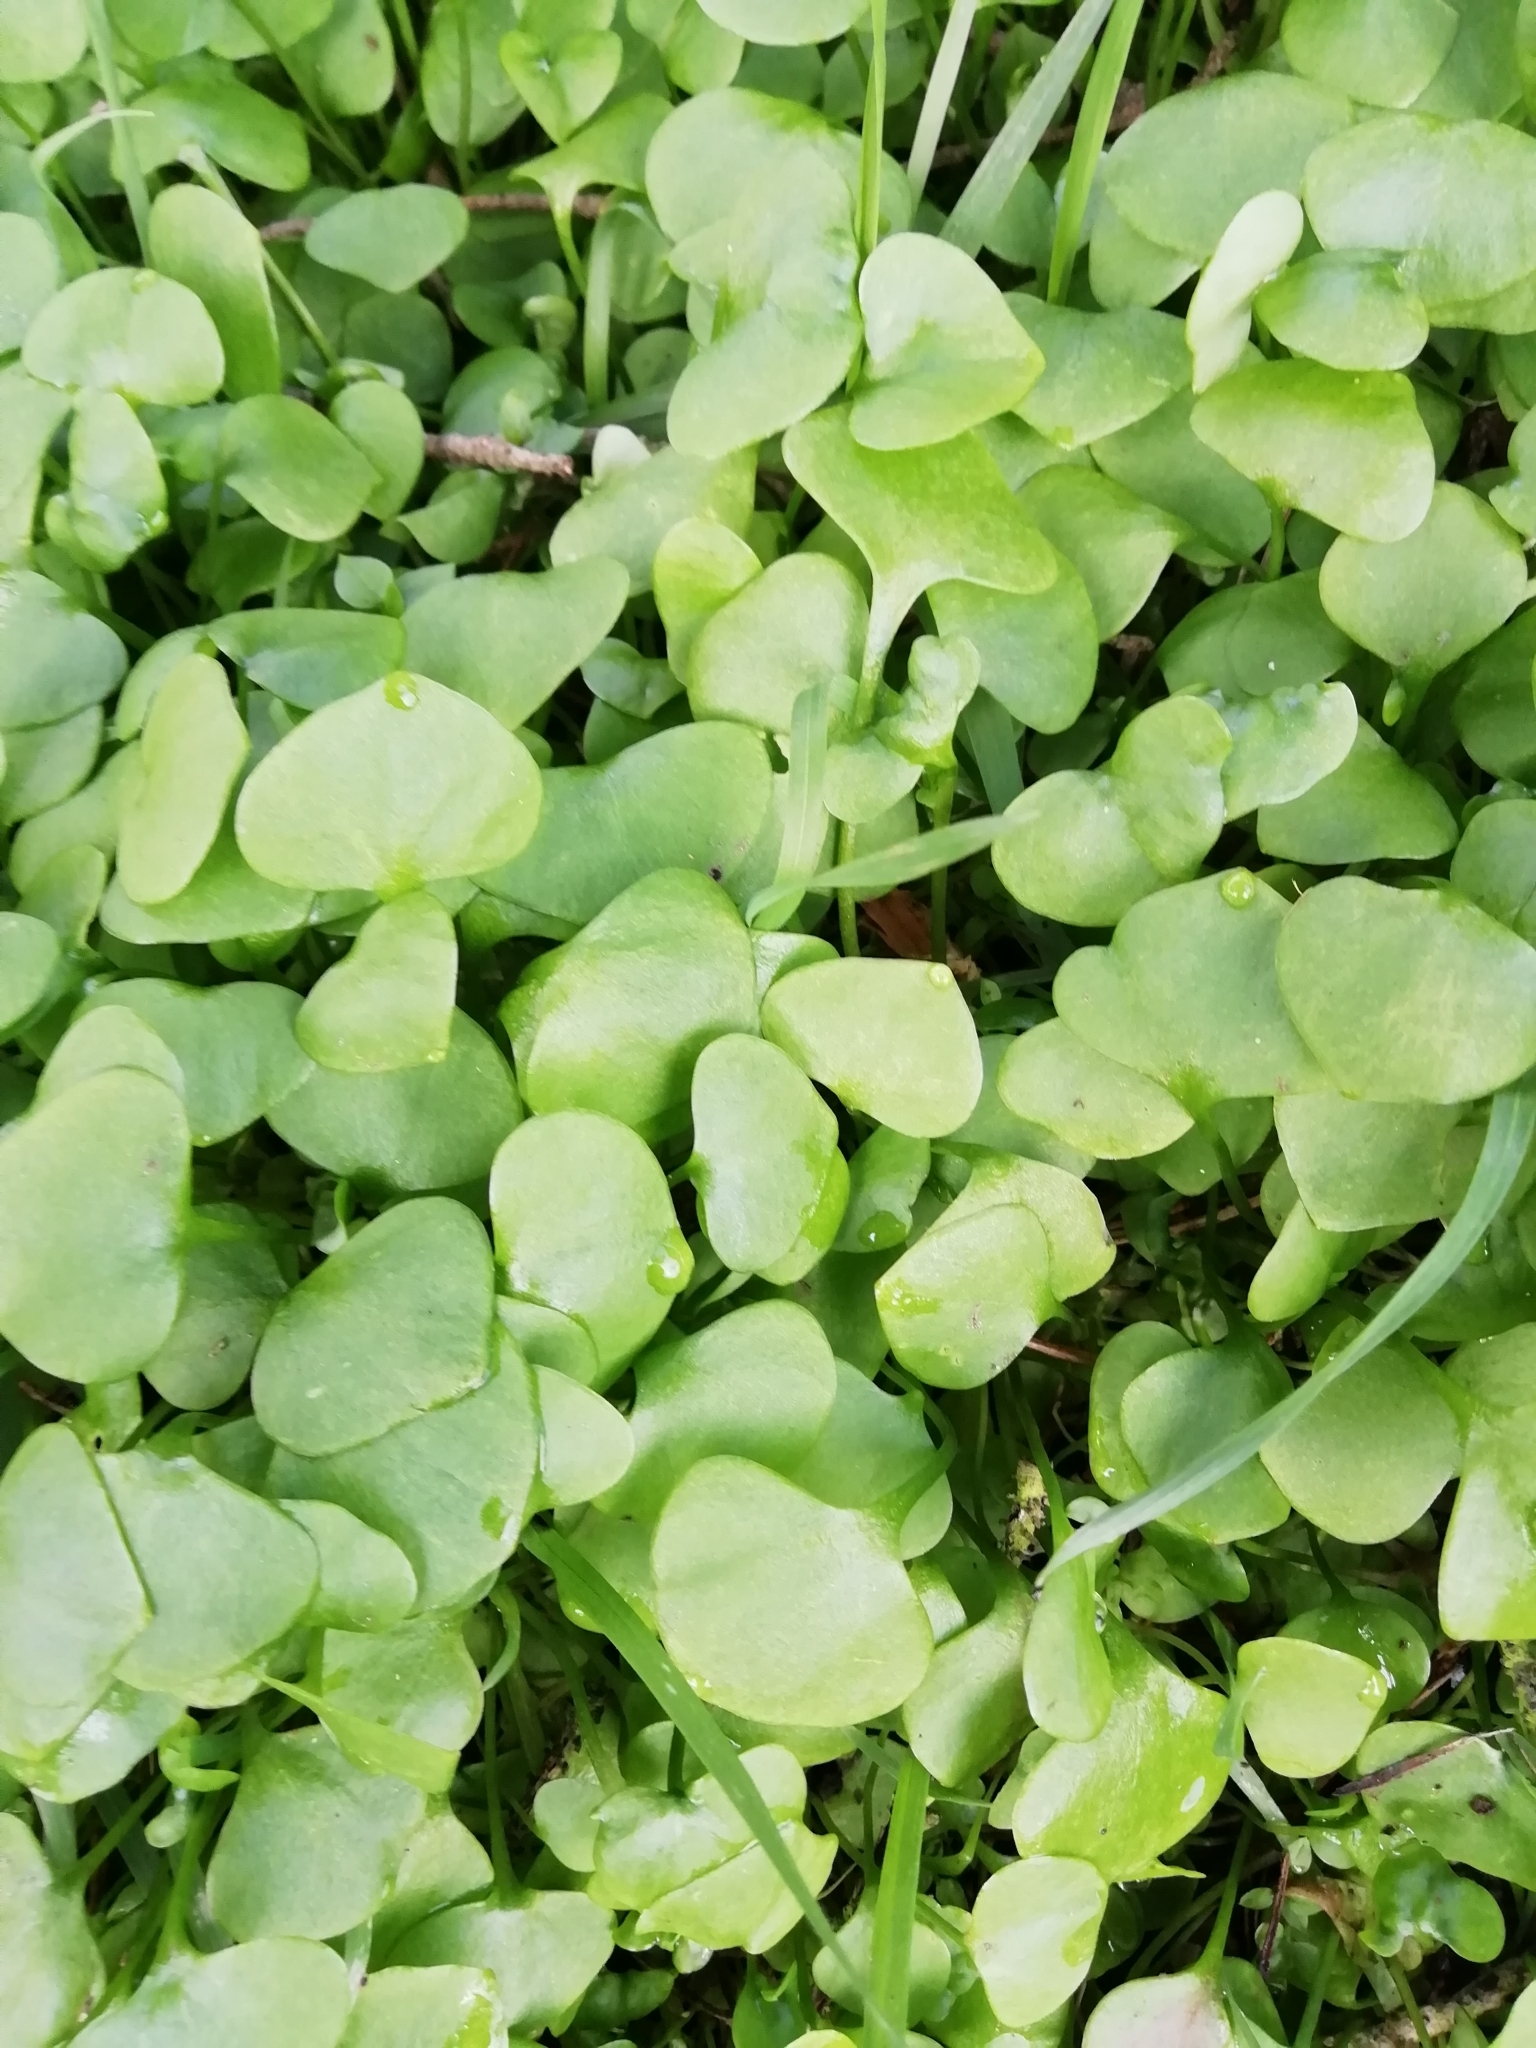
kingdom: Plantae
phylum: Tracheophyta
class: Magnoliopsida
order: Caryophyllales
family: Montiaceae
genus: Claytonia
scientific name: Claytonia perfoliata
